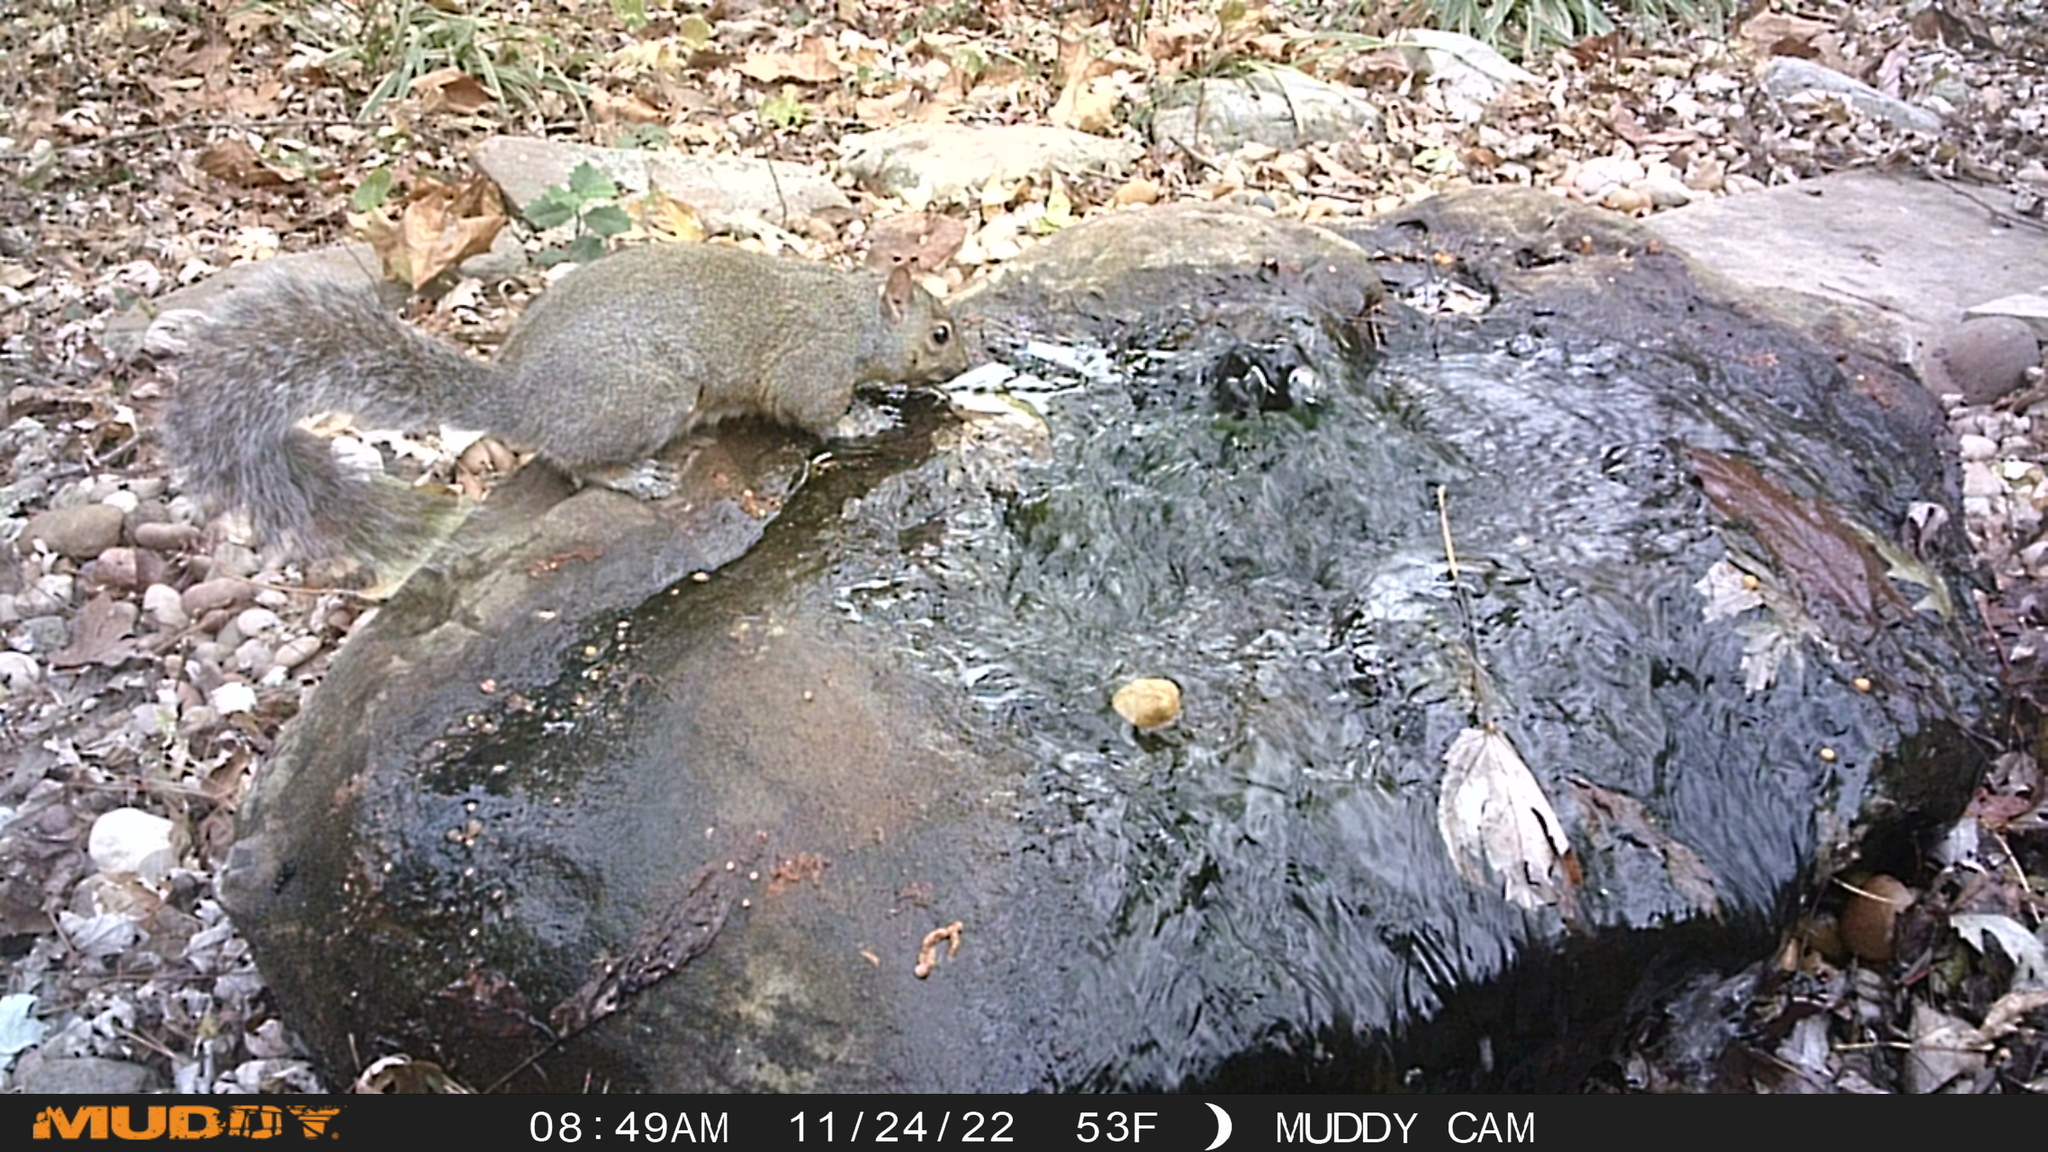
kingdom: Animalia
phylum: Chordata
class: Mammalia
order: Rodentia
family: Sciuridae
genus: Sciurus
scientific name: Sciurus carolinensis
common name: Eastern gray squirrel
